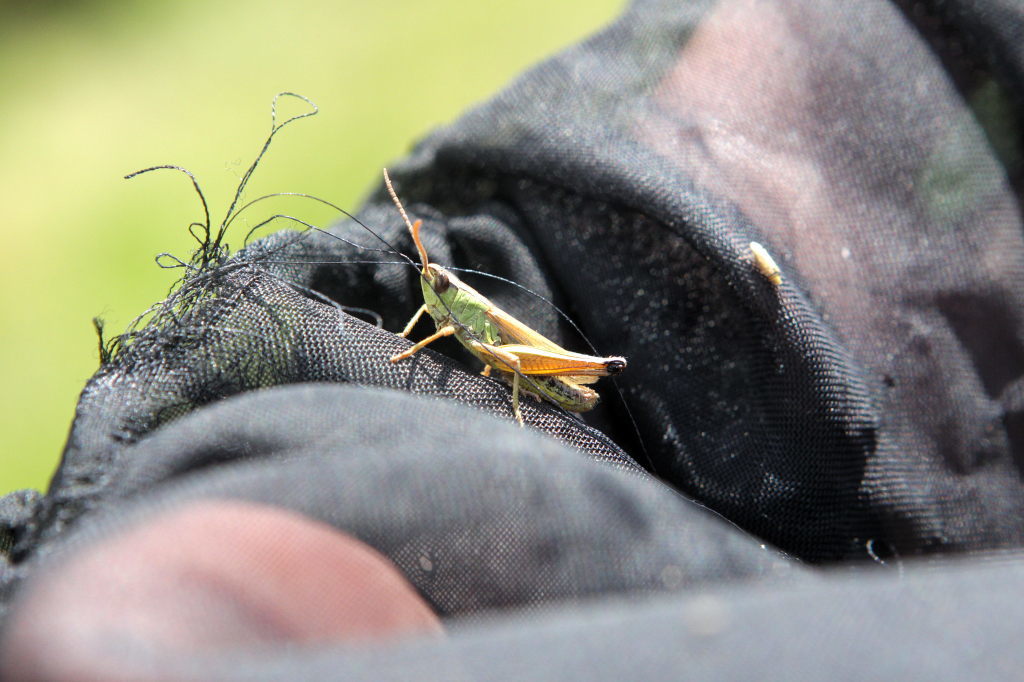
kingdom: Animalia
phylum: Arthropoda
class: Insecta
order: Orthoptera
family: Acrididae
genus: Pseudochorthippus
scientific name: Pseudochorthippus parallelus
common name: Meadow grasshopper
